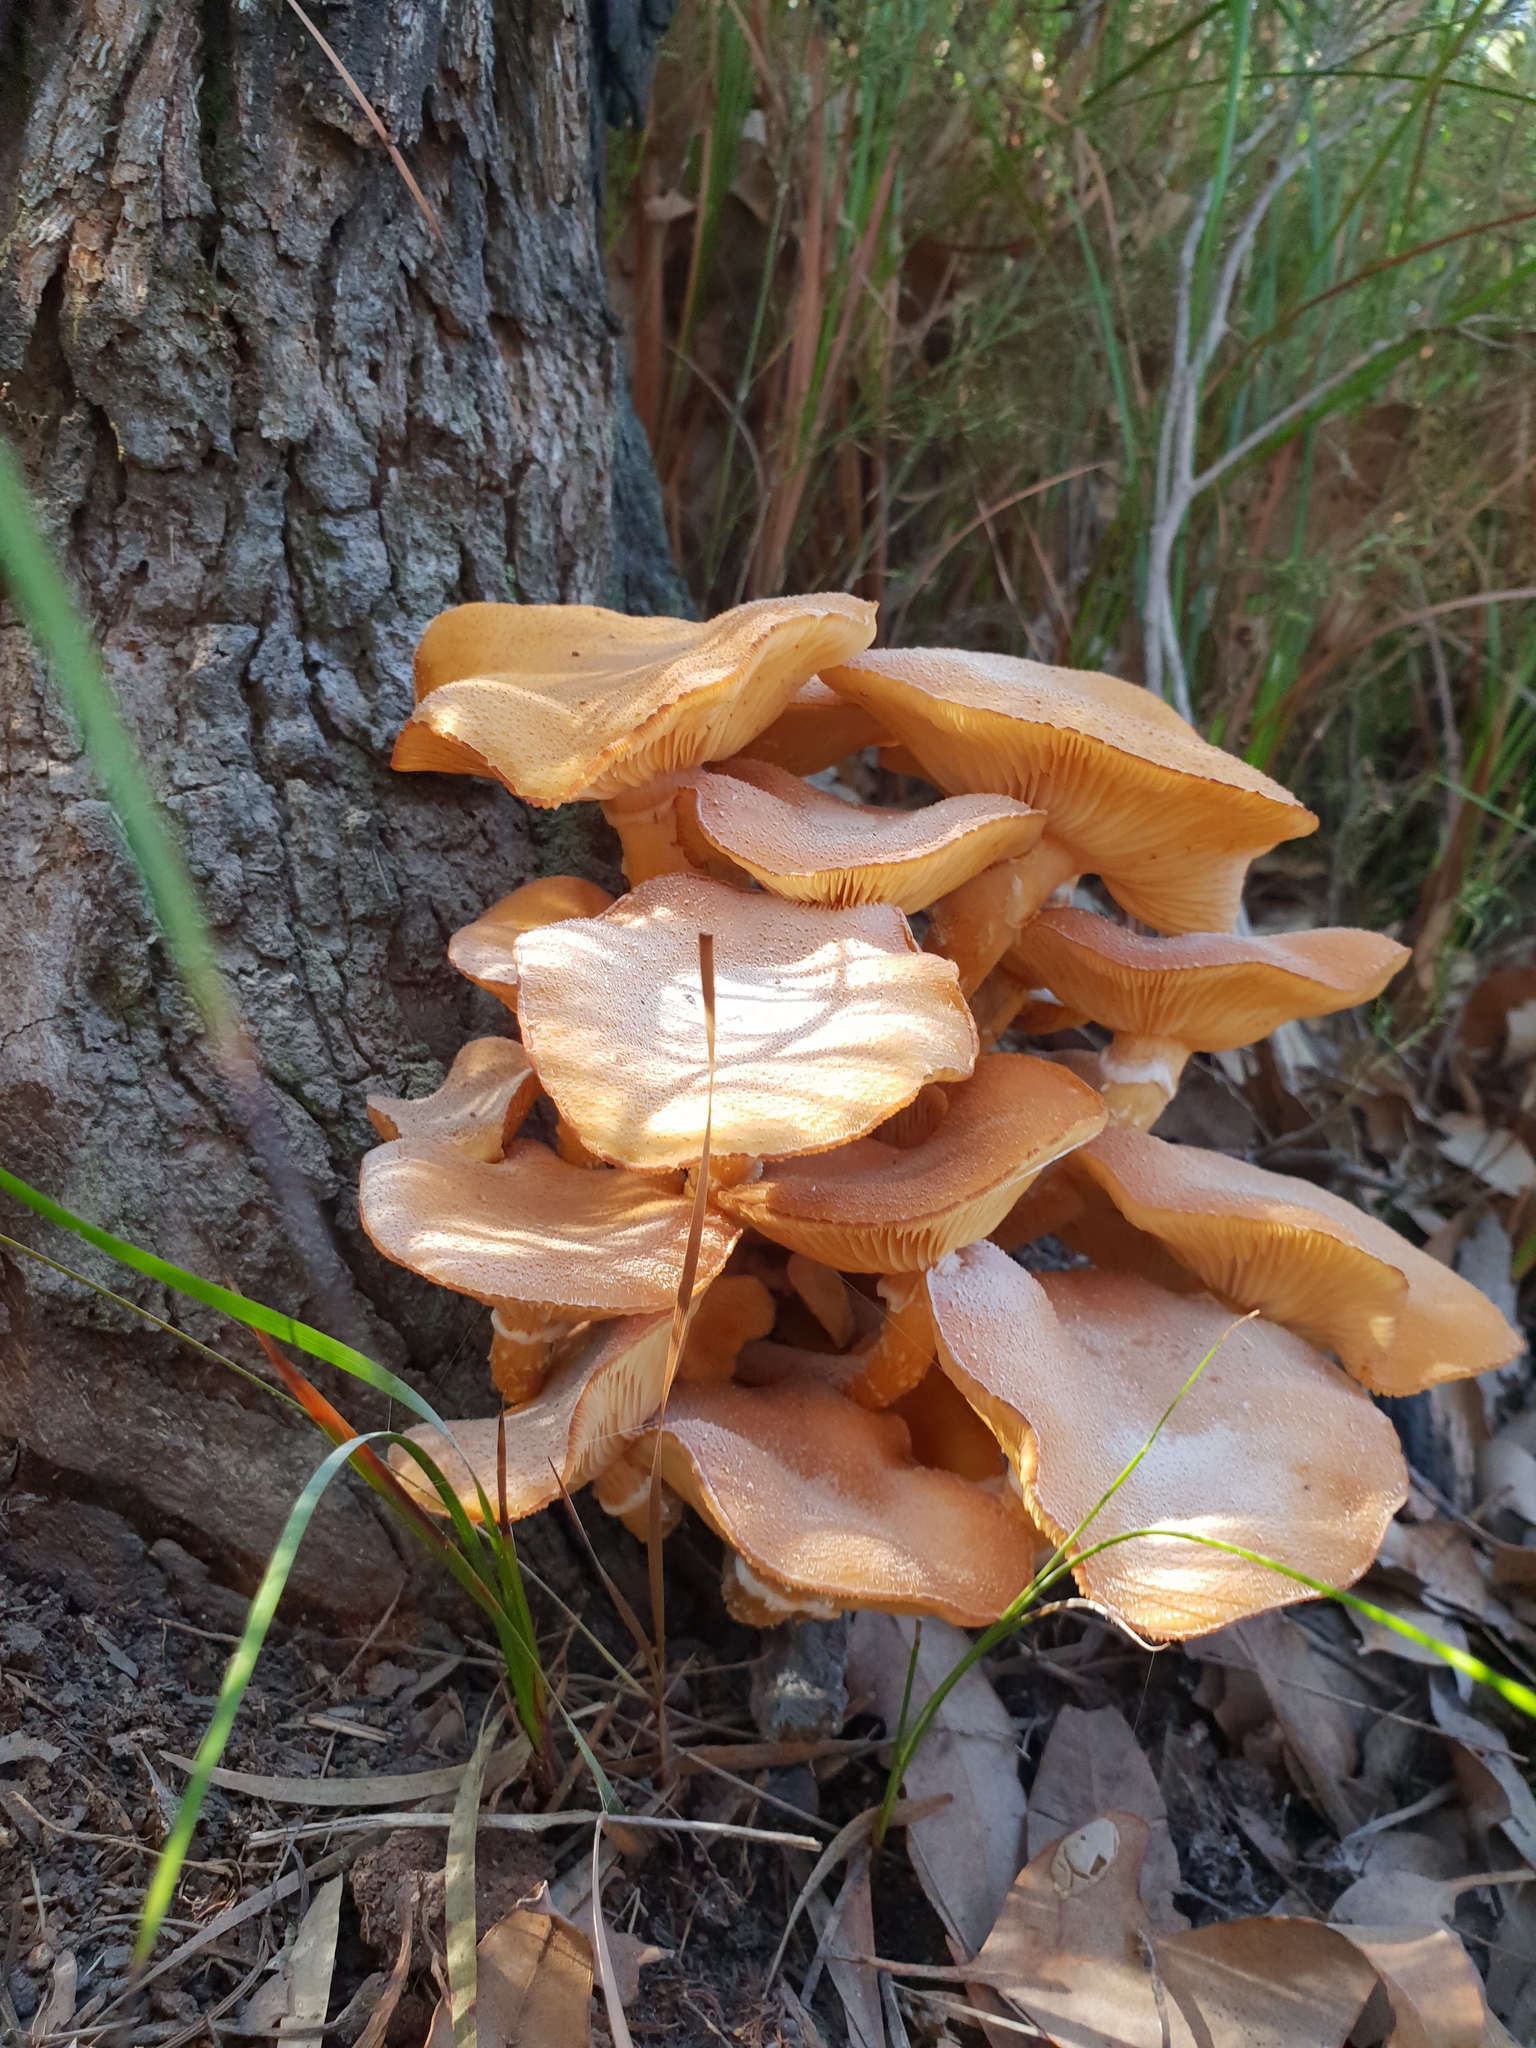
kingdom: Fungi
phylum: Basidiomycota
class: Agaricomycetes
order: Agaricales
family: Physalacriaceae
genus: Armillaria
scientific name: Armillaria luteobubalina
